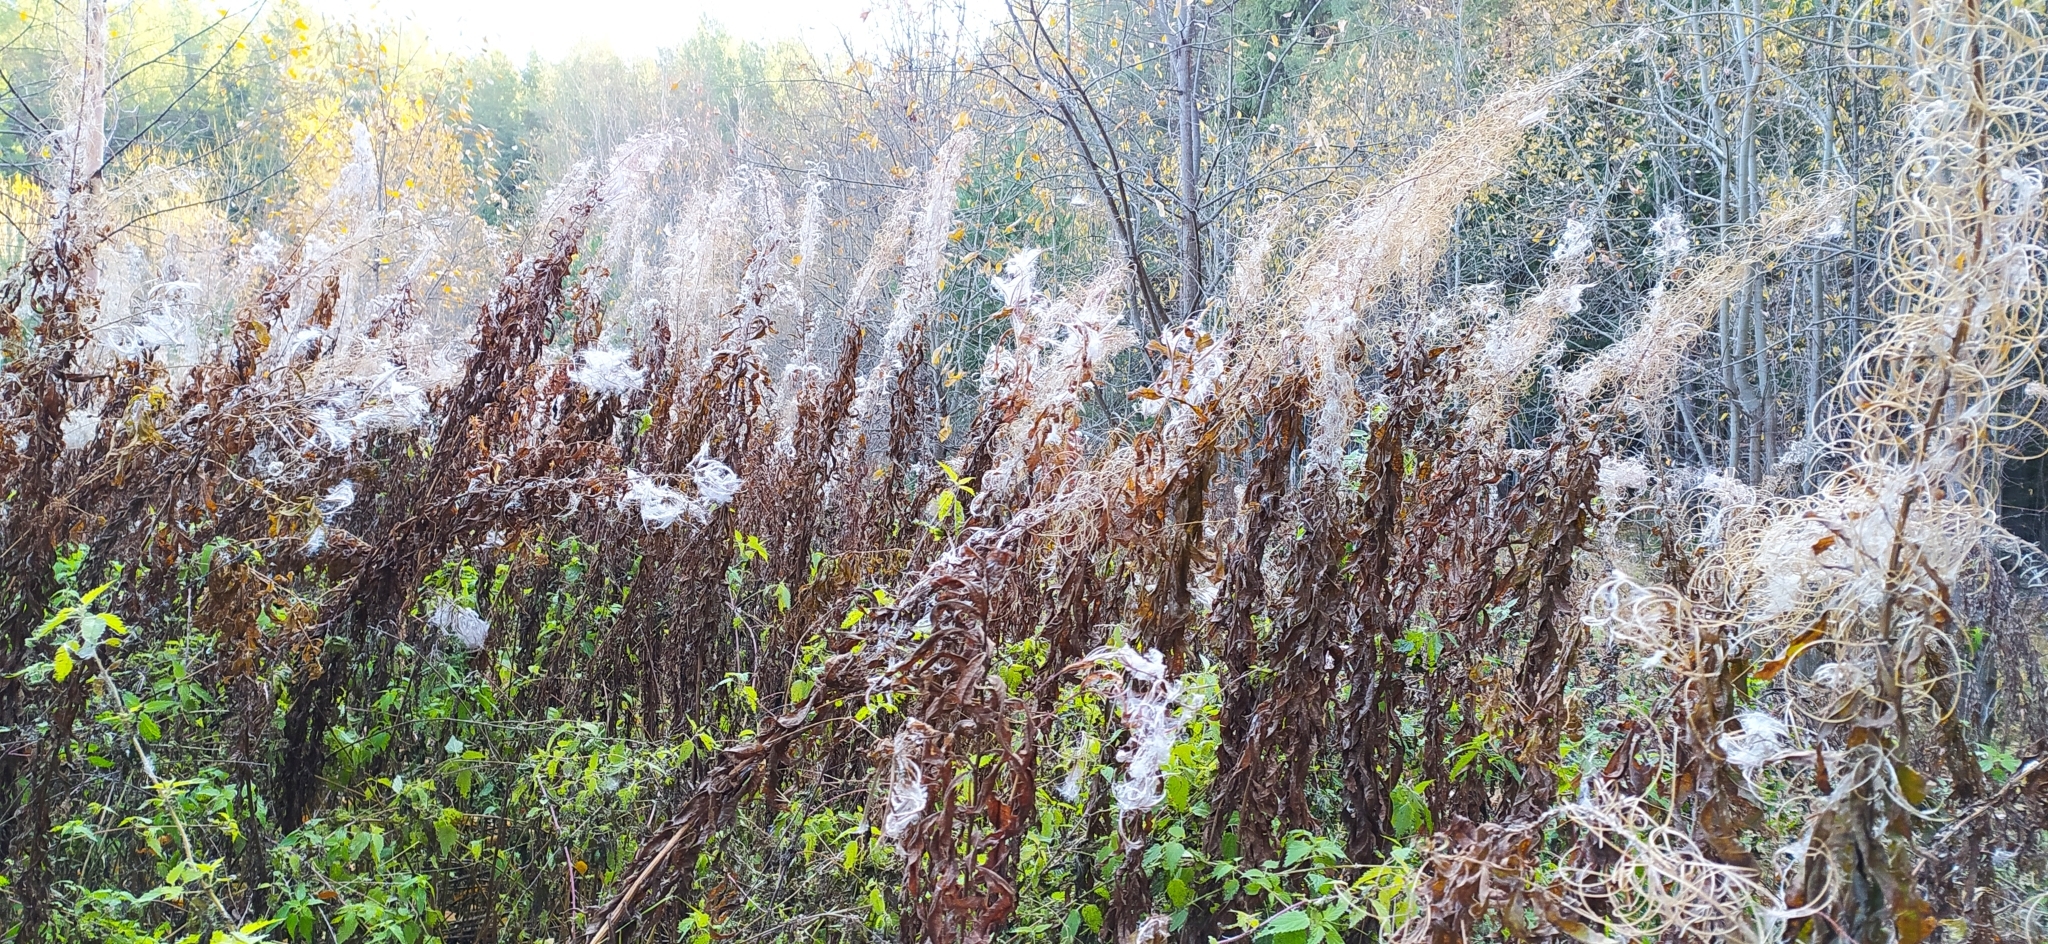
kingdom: Plantae
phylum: Tracheophyta
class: Magnoliopsida
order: Myrtales
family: Onagraceae
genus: Chamaenerion
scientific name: Chamaenerion angustifolium
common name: Fireweed
